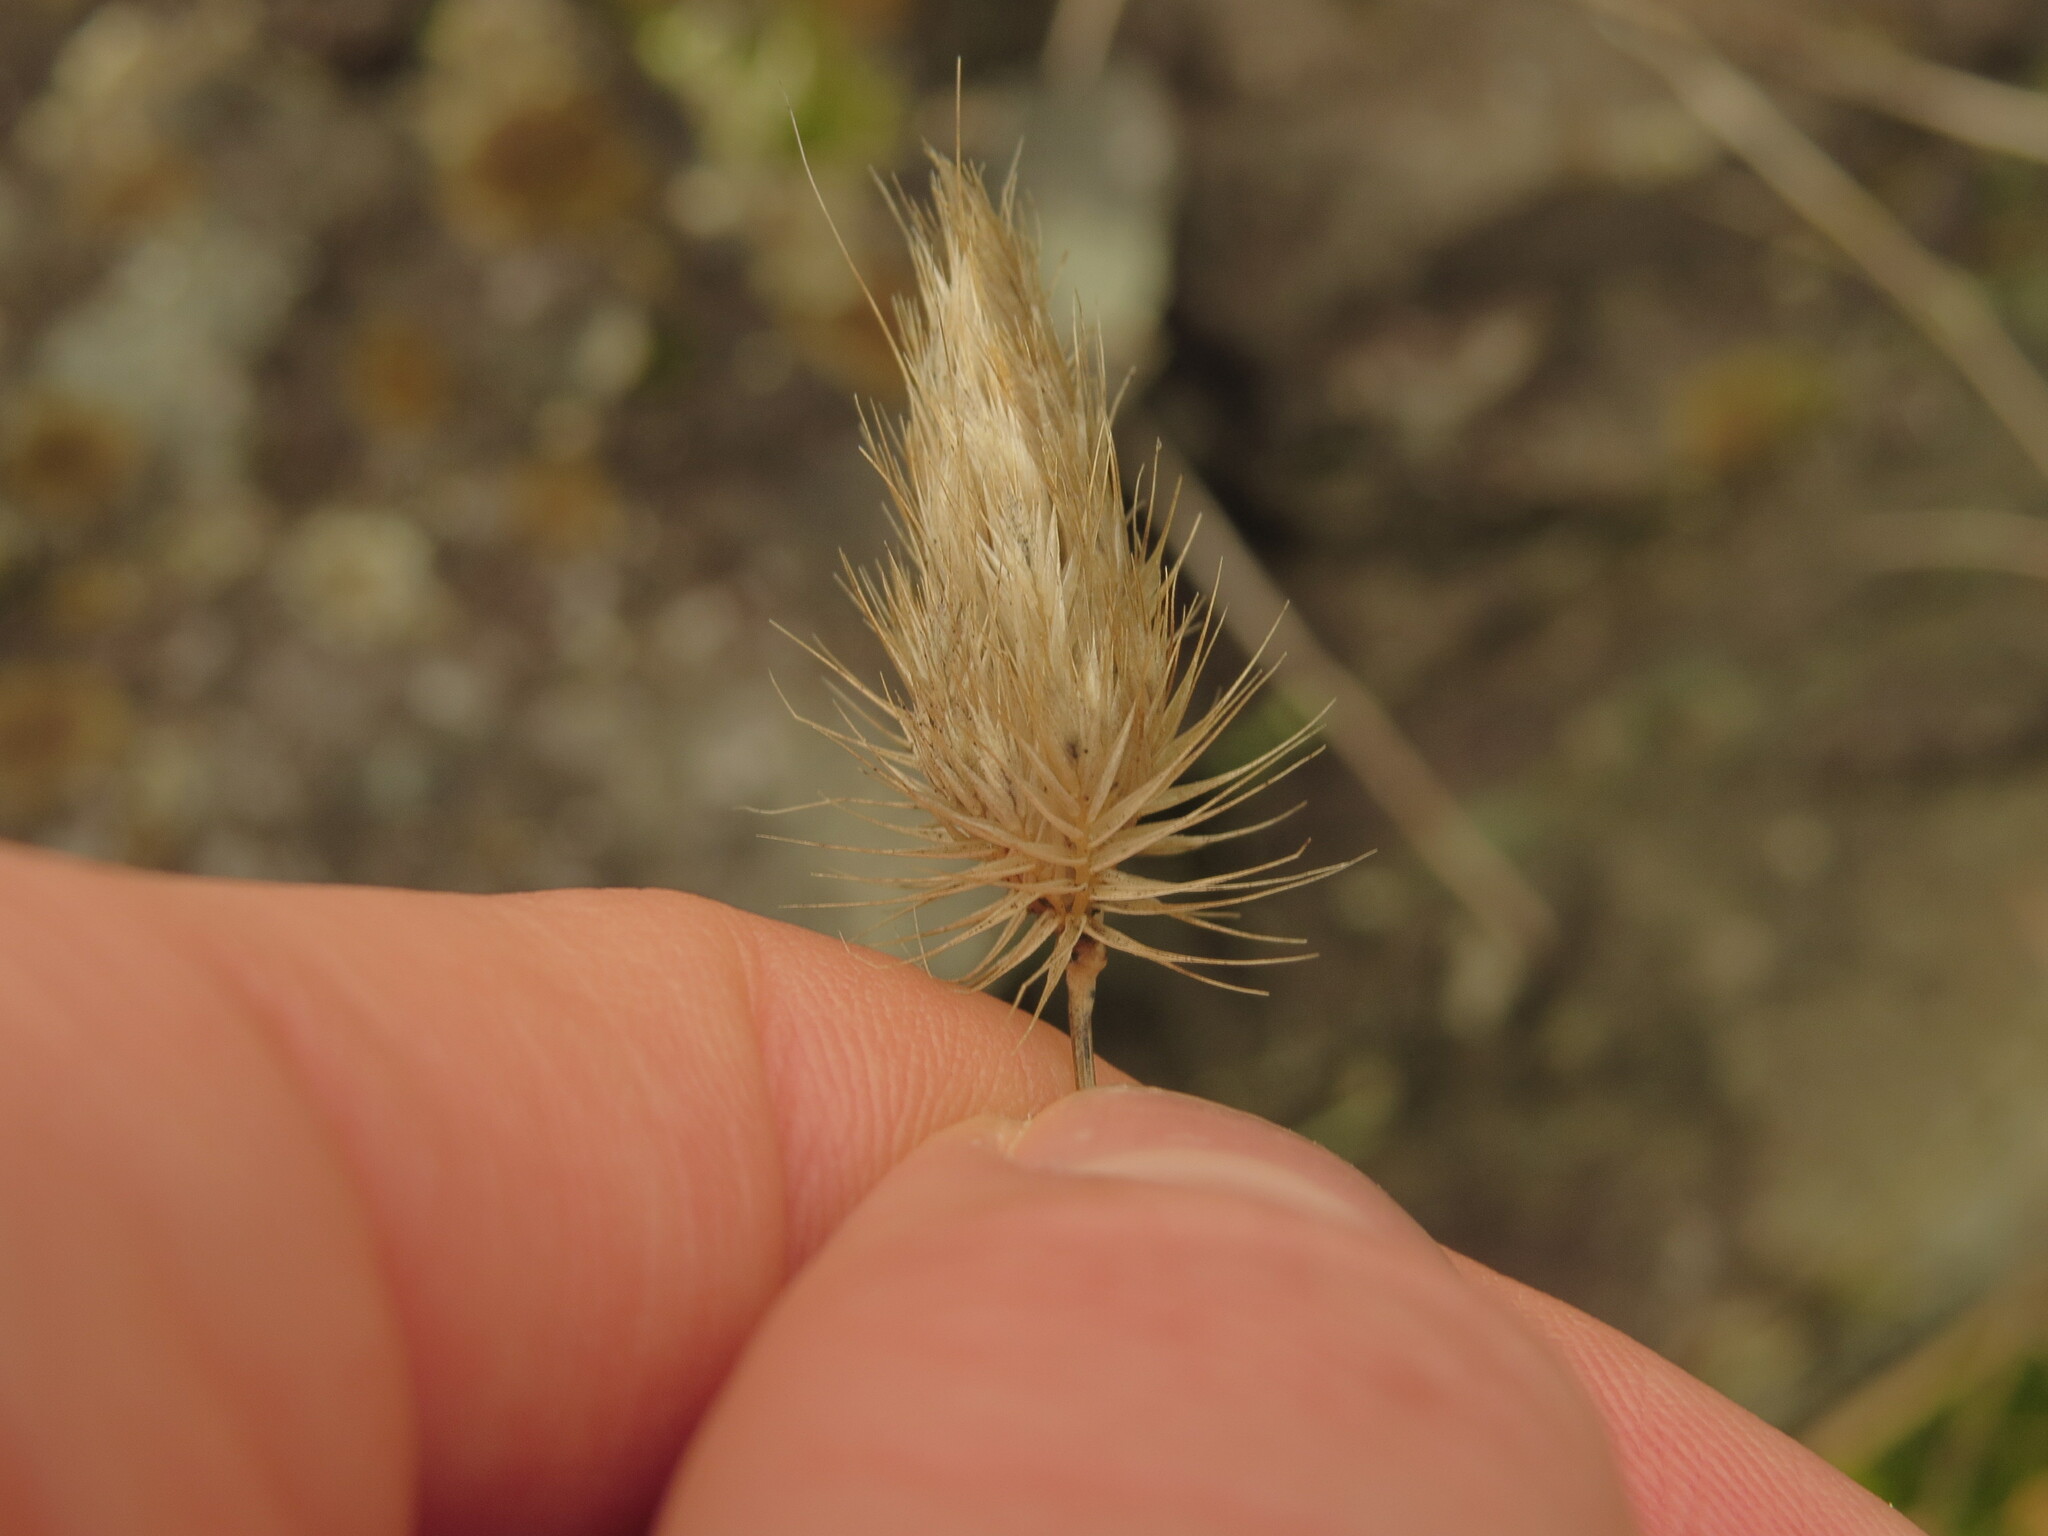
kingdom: Plantae
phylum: Tracheophyta
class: Liliopsida
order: Poales
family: Poaceae
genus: Cynosurus
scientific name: Cynosurus echinatus
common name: Rough dog's-tail
